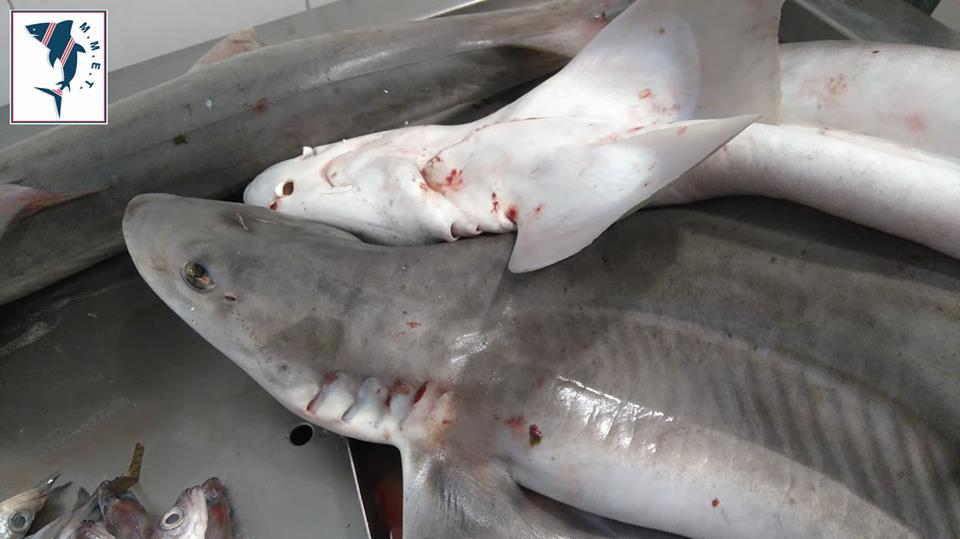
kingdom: Animalia
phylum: Chordata
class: Elasmobranchii
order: Carcharhiniformes
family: Triakidae
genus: Mustelus
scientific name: Mustelus mustelus
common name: Smooth-hound
